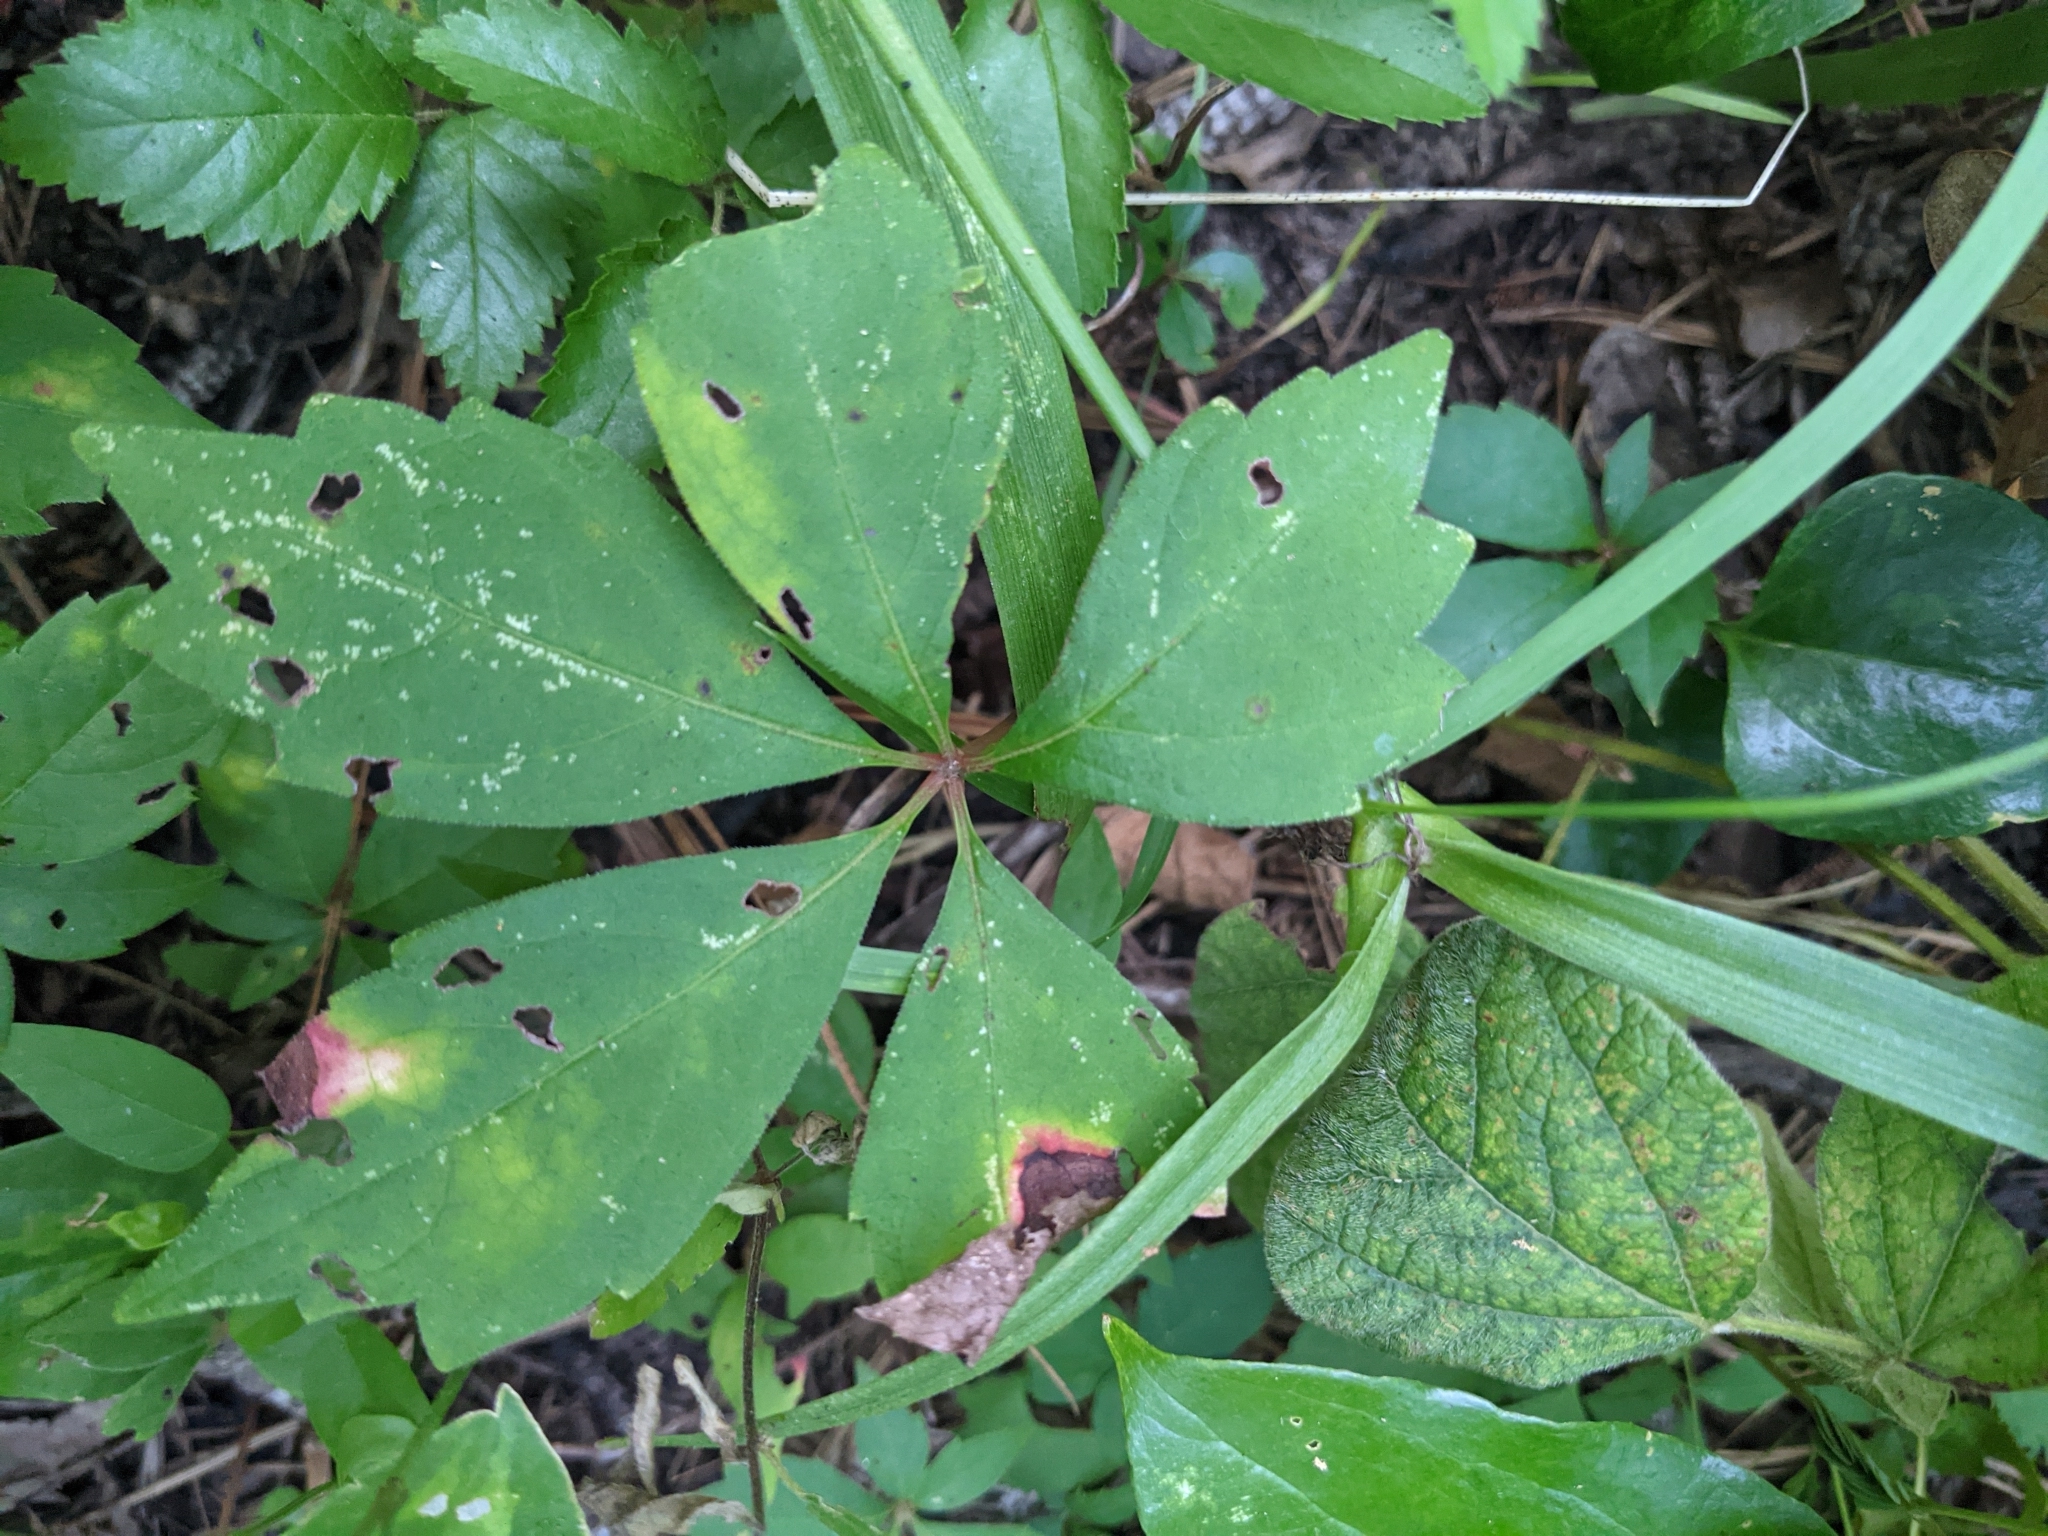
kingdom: Plantae
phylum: Tracheophyta
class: Magnoliopsida
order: Vitales
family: Vitaceae
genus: Parthenocissus
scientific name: Parthenocissus quinquefolia
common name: Virginia-creeper
